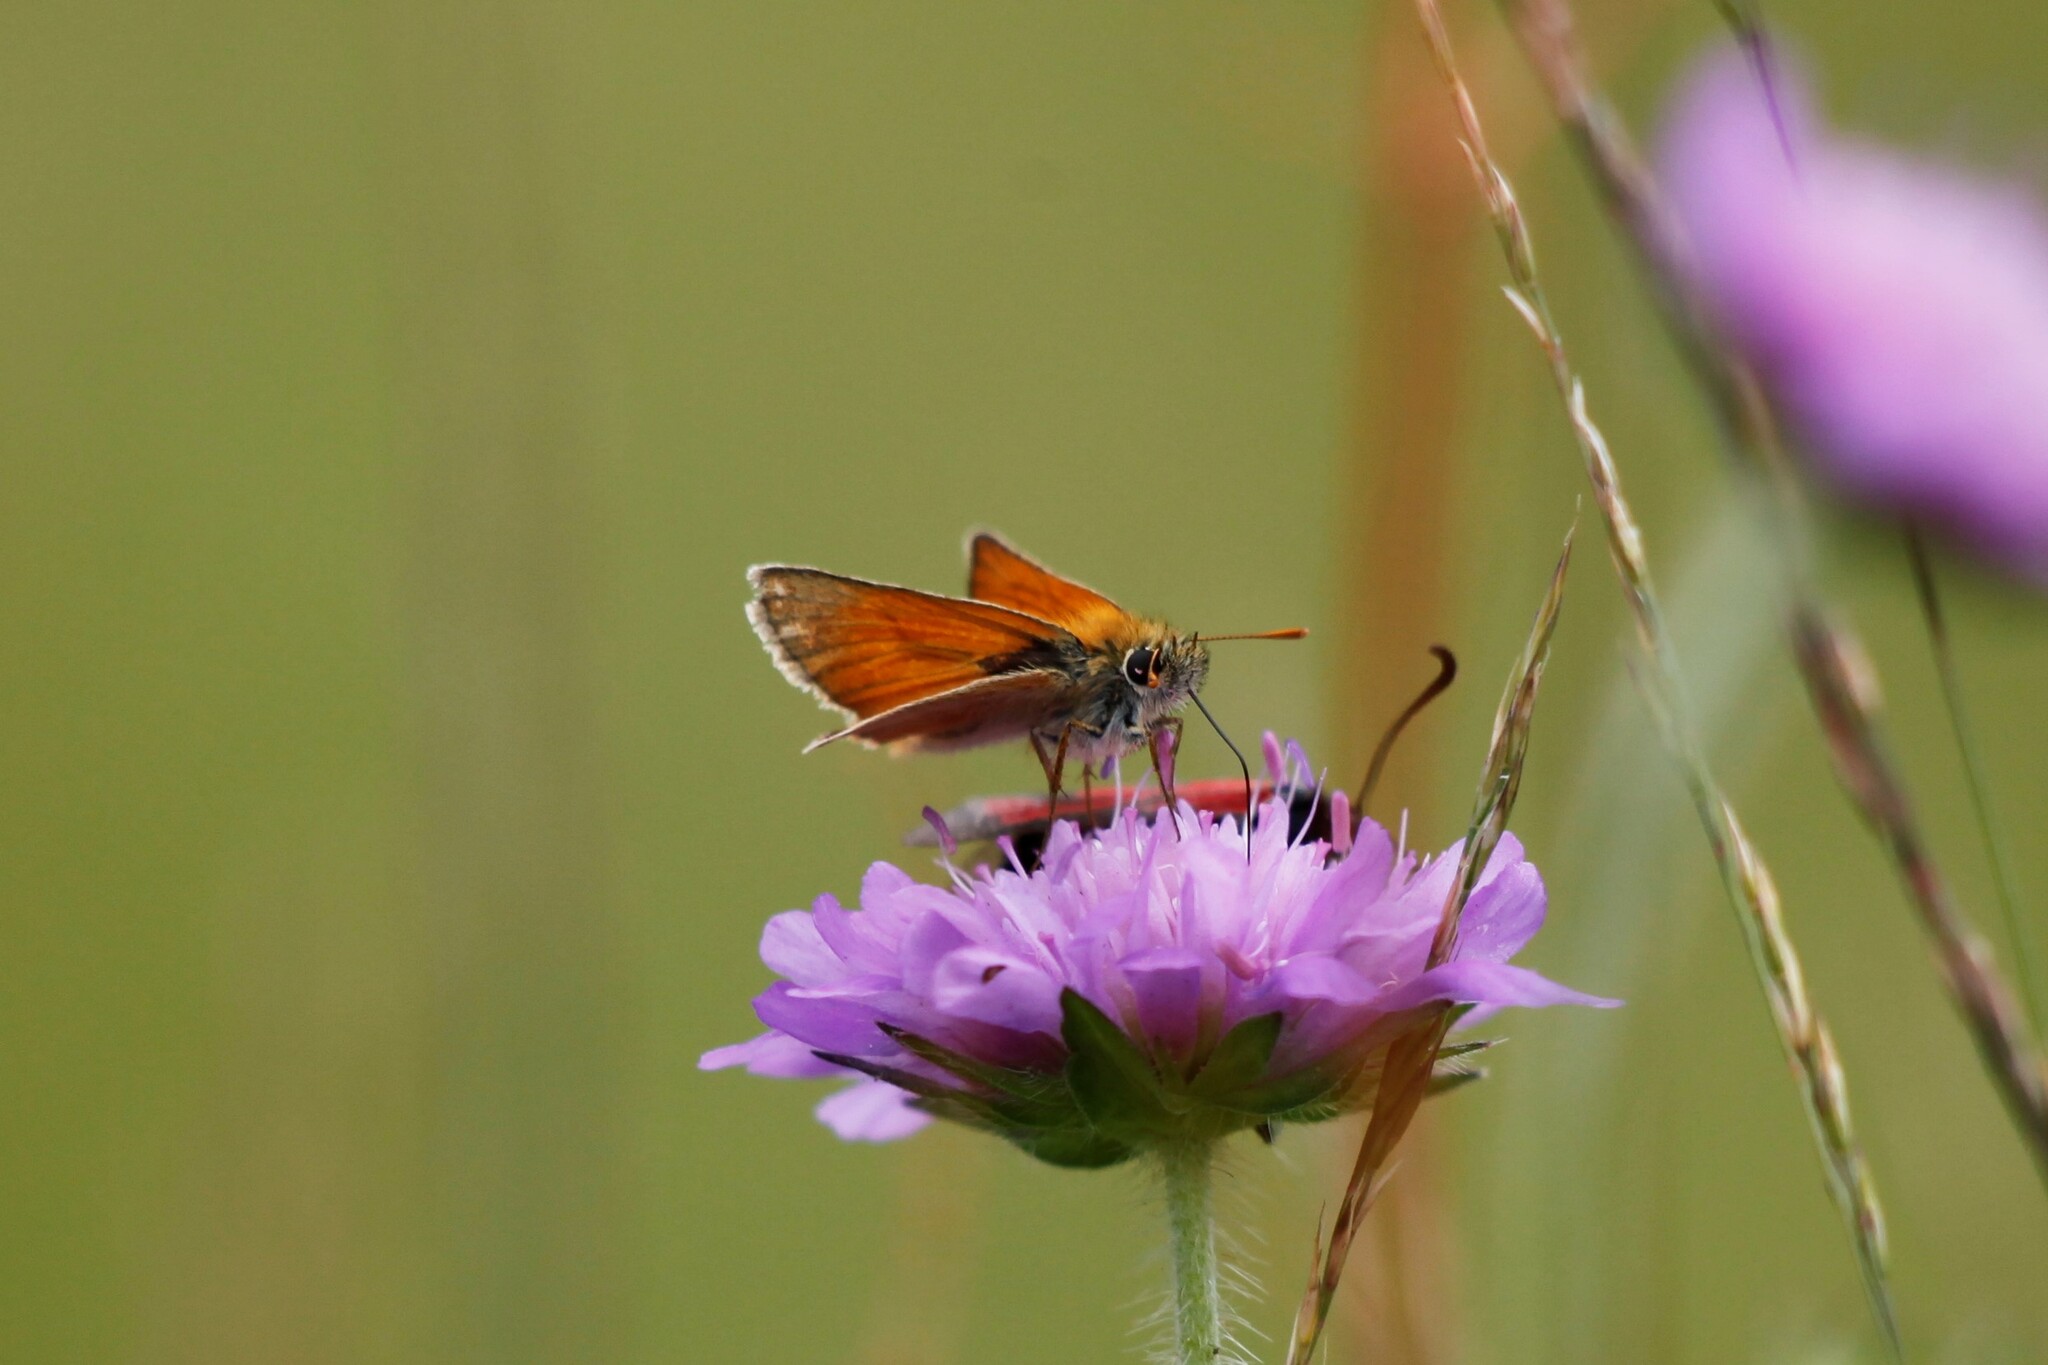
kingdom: Animalia
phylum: Arthropoda
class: Insecta
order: Lepidoptera
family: Hesperiidae
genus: Thymelicus
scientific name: Thymelicus sylvestris
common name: Small skipper
